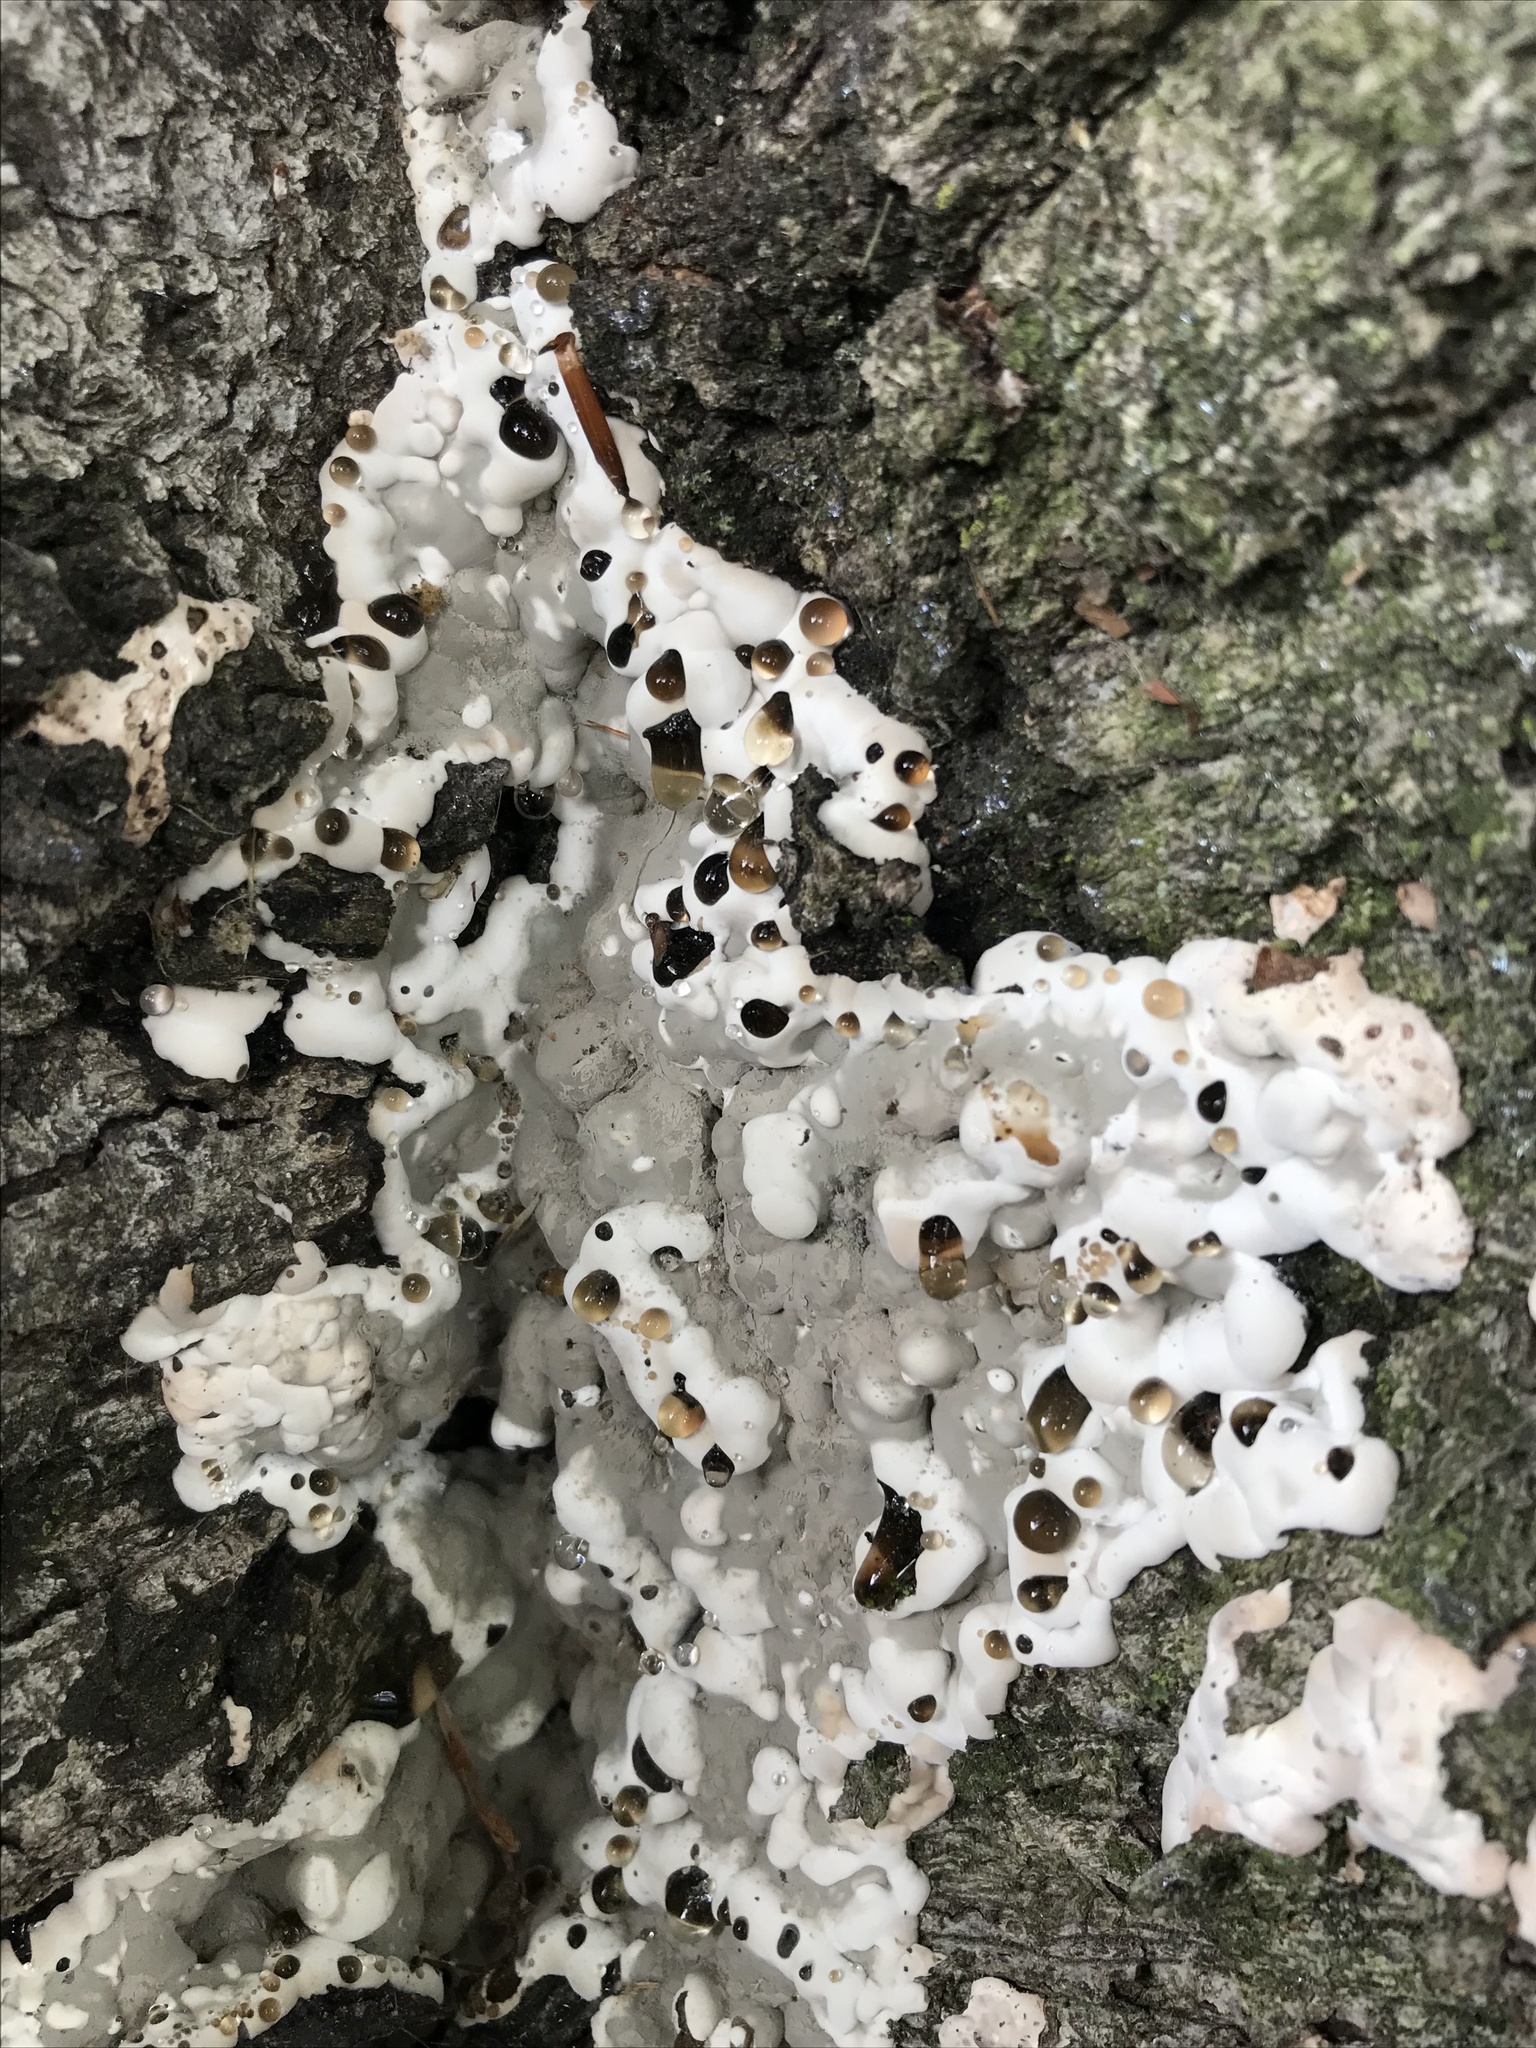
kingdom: Fungi
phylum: Ascomycota
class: Sordariomycetes
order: Xylariales
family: Xylariaceae
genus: Kretzschmaria
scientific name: Kretzschmaria deusta
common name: Brittle cinder
